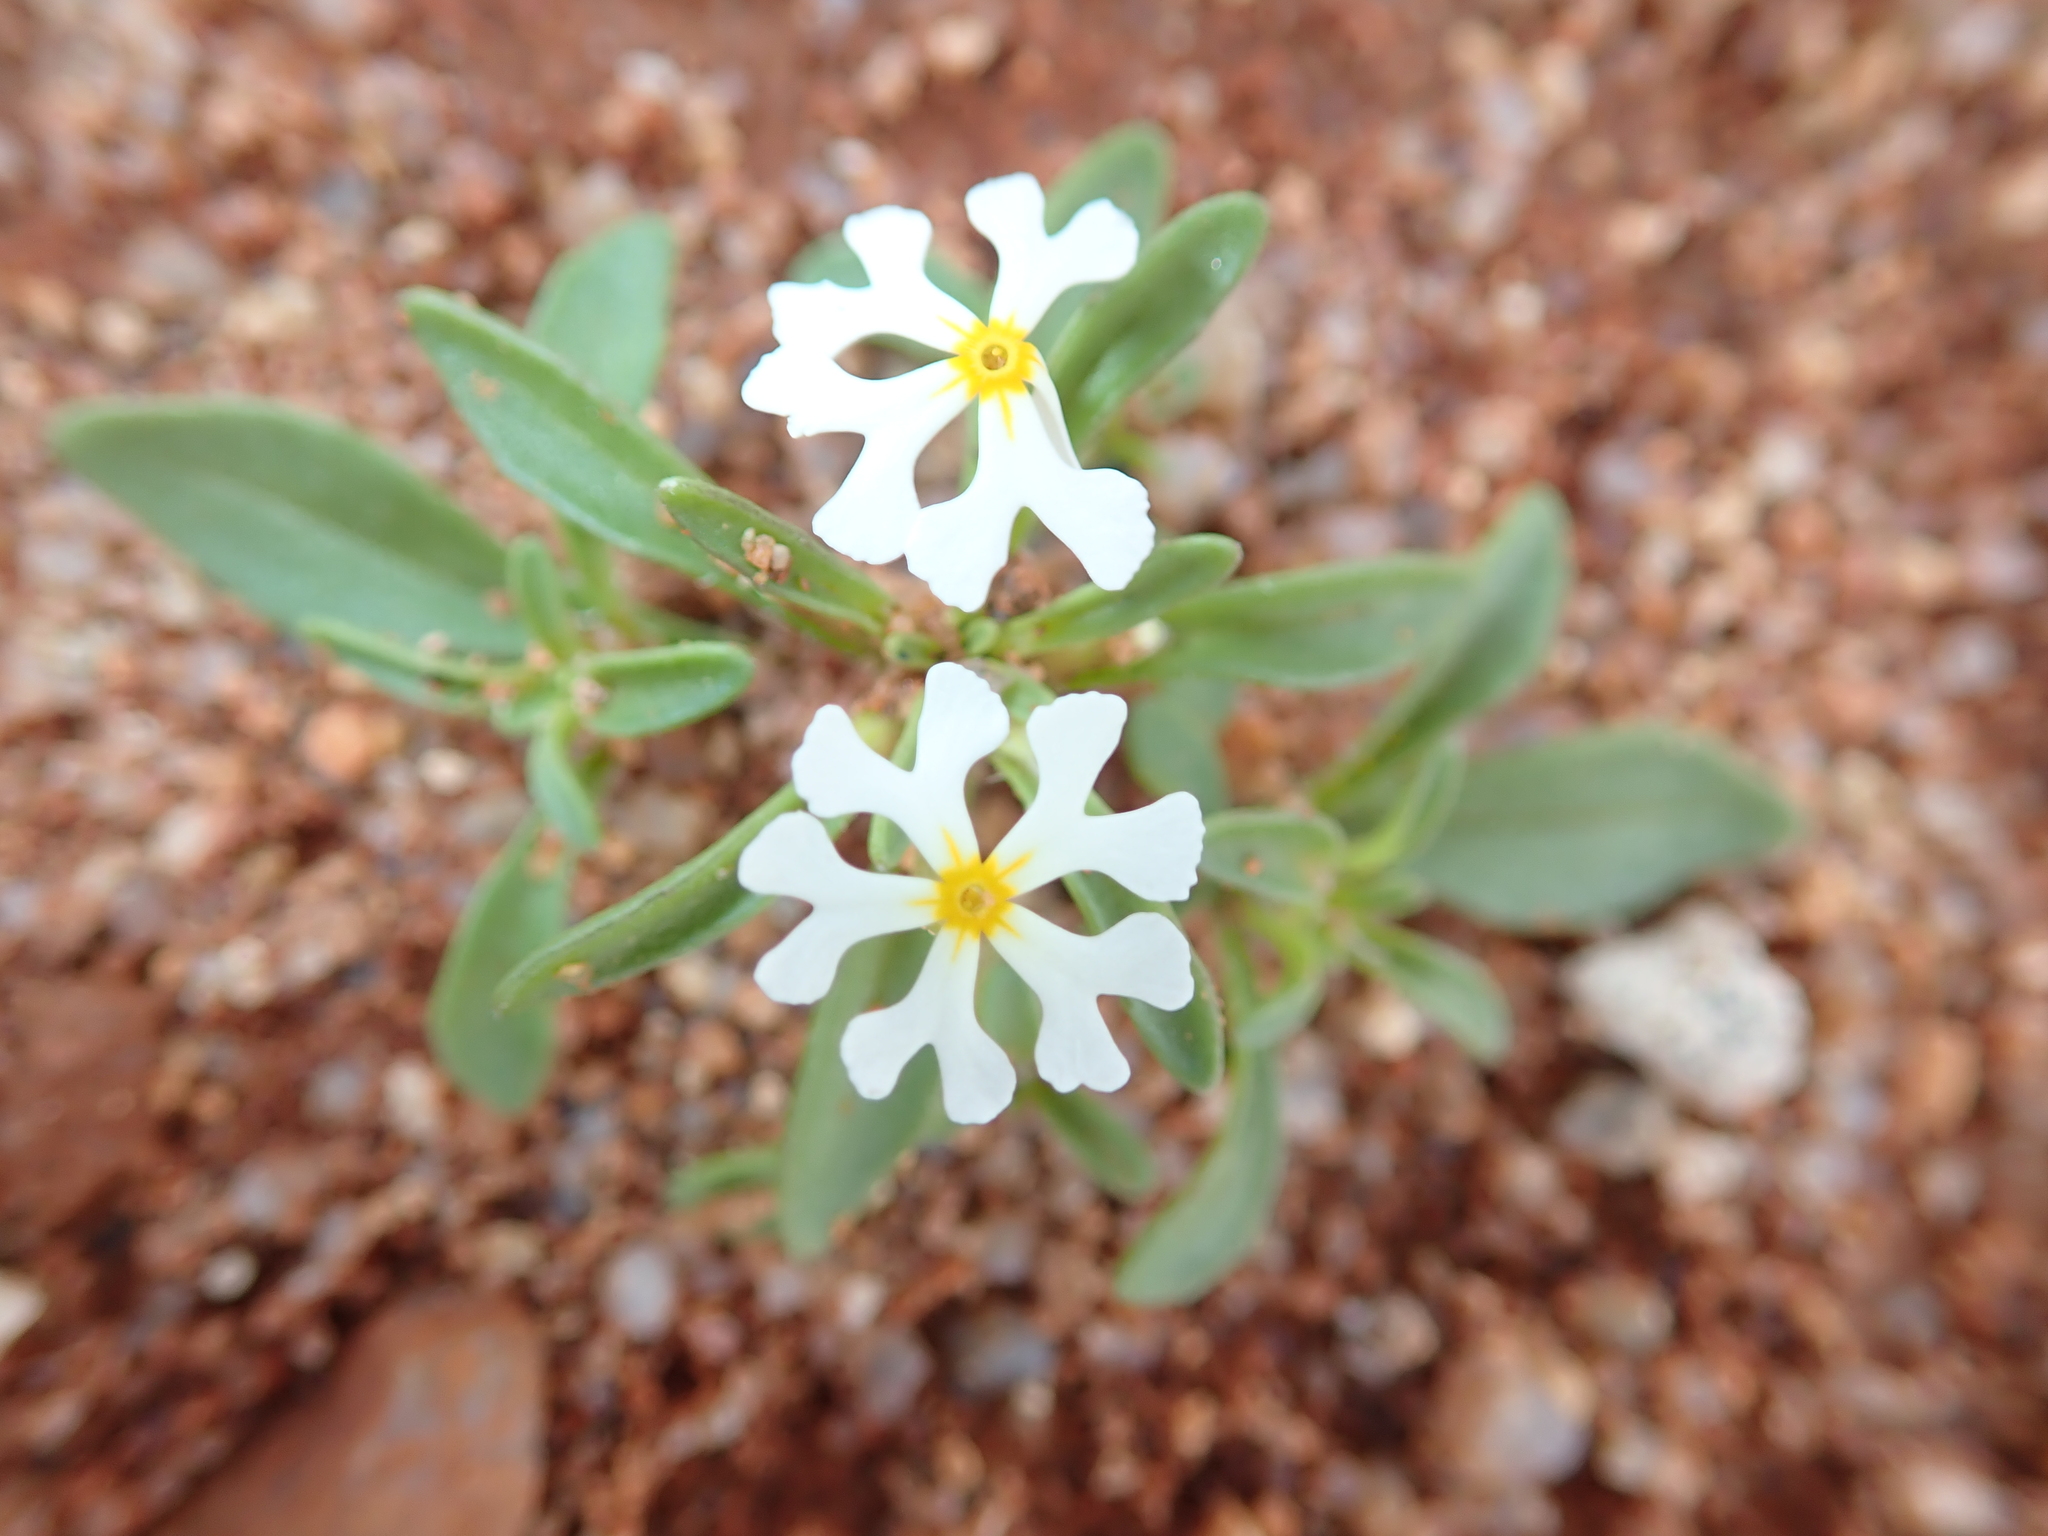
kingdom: Plantae
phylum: Tracheophyta
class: Magnoliopsida
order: Lamiales
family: Scrophulariaceae
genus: Zaluzianskya
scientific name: Zaluzianskya affinis
